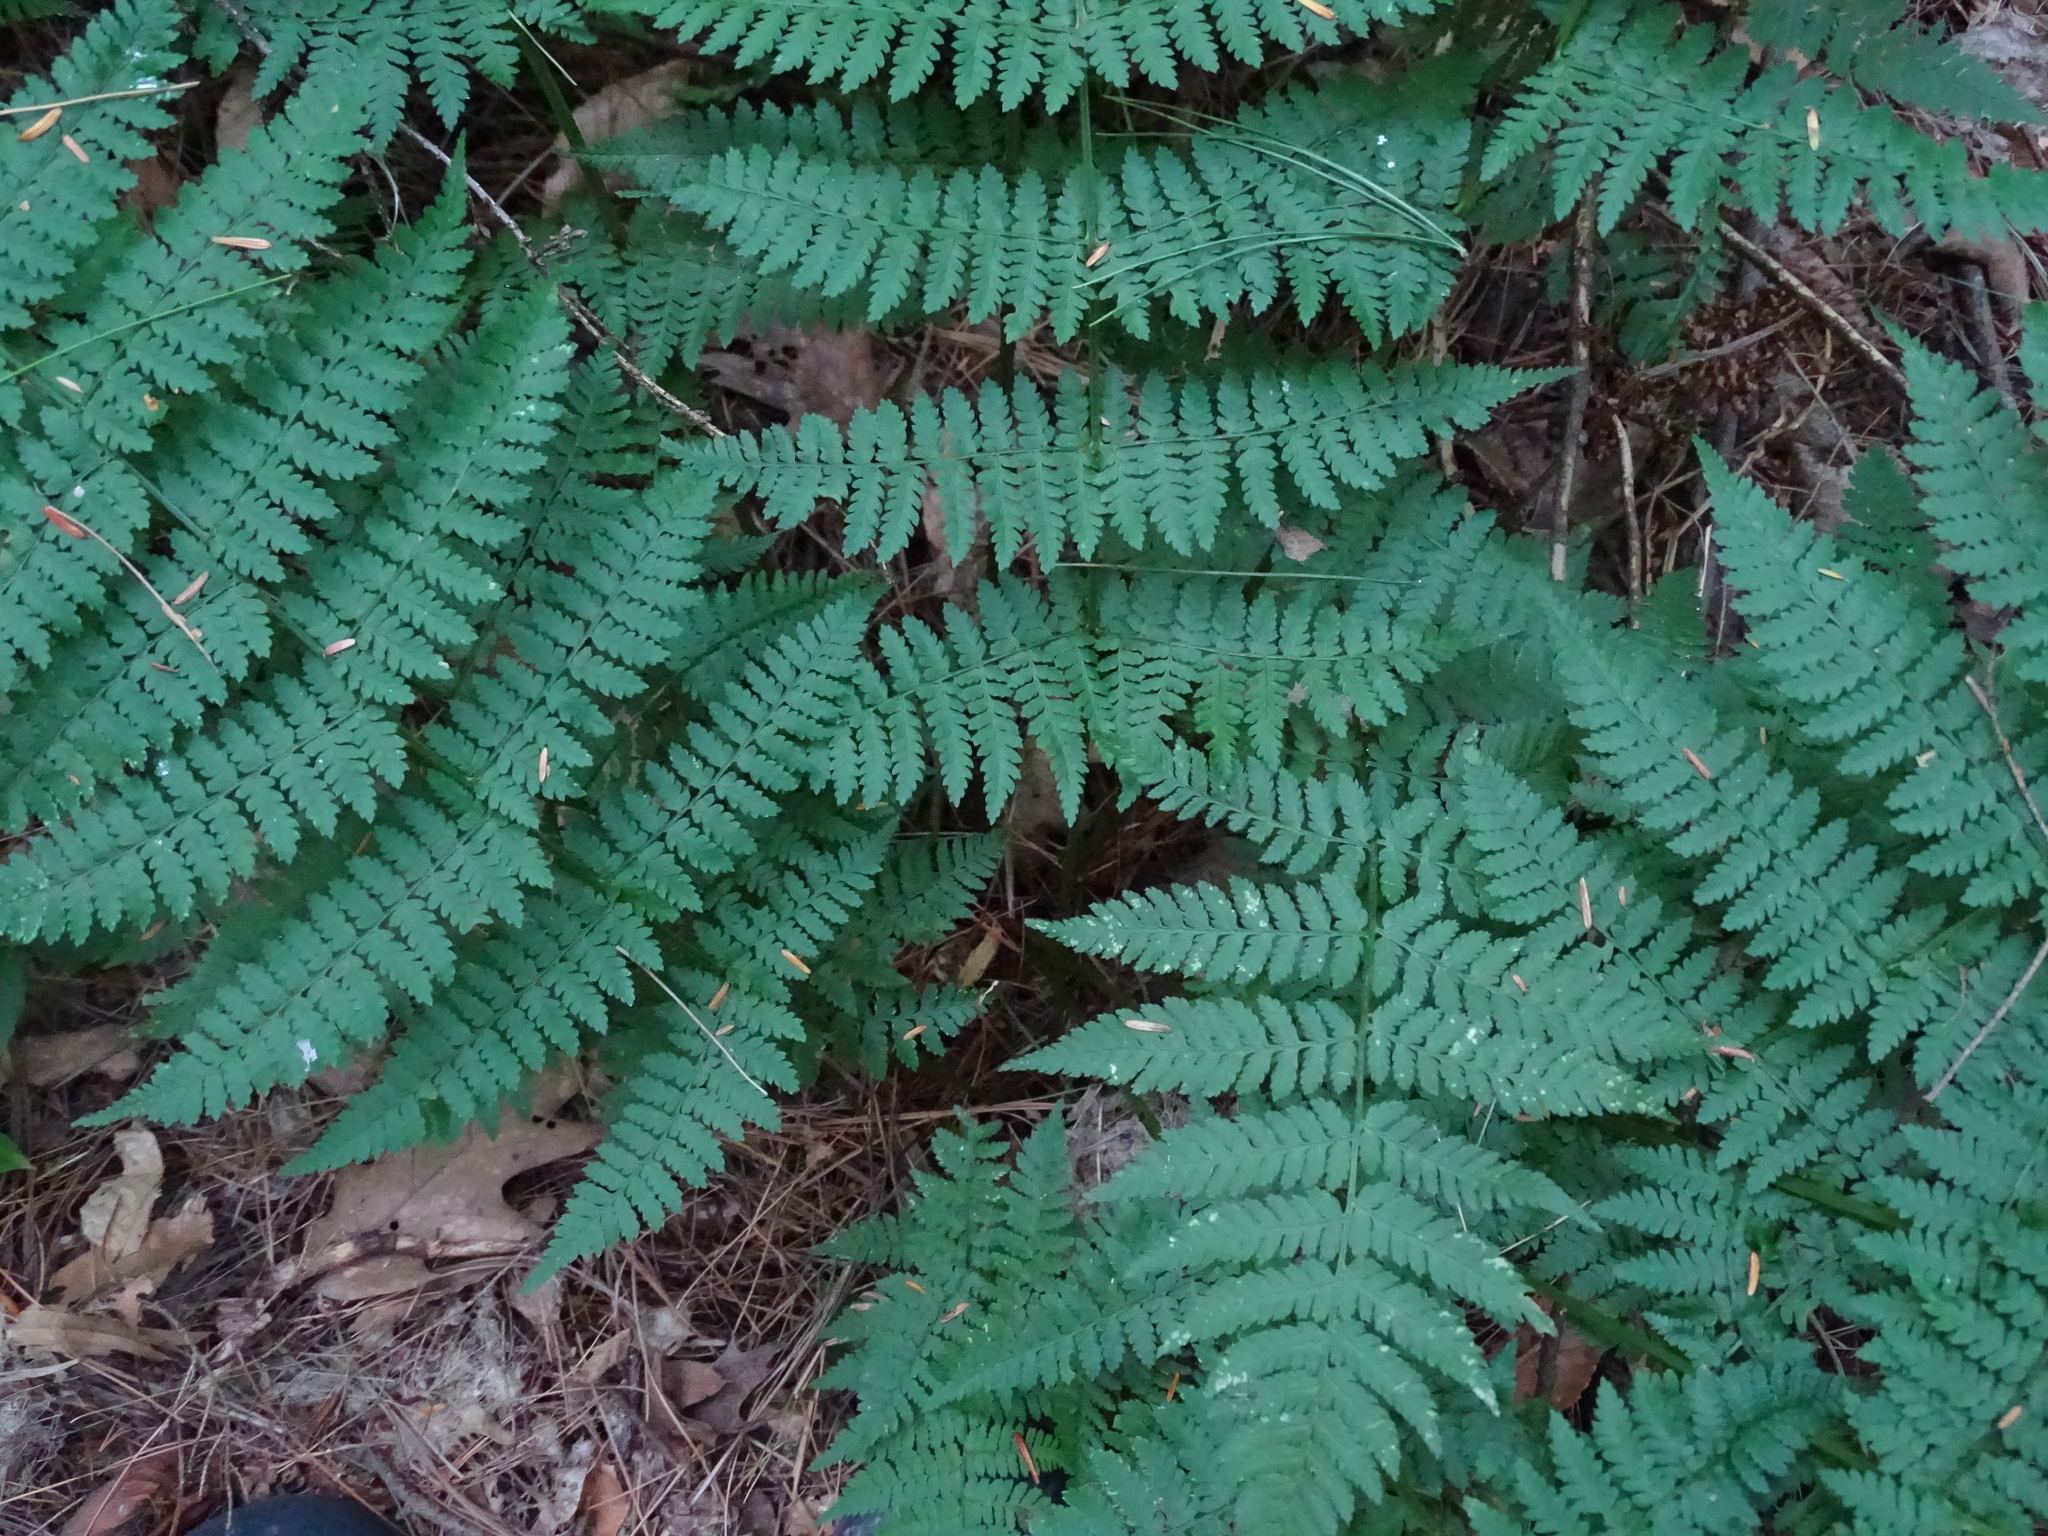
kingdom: Plantae
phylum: Tracheophyta
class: Polypodiopsida
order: Polypodiales
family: Dryopteridaceae
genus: Dryopteris
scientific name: Dryopteris intermedia
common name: Evergreen wood fern
